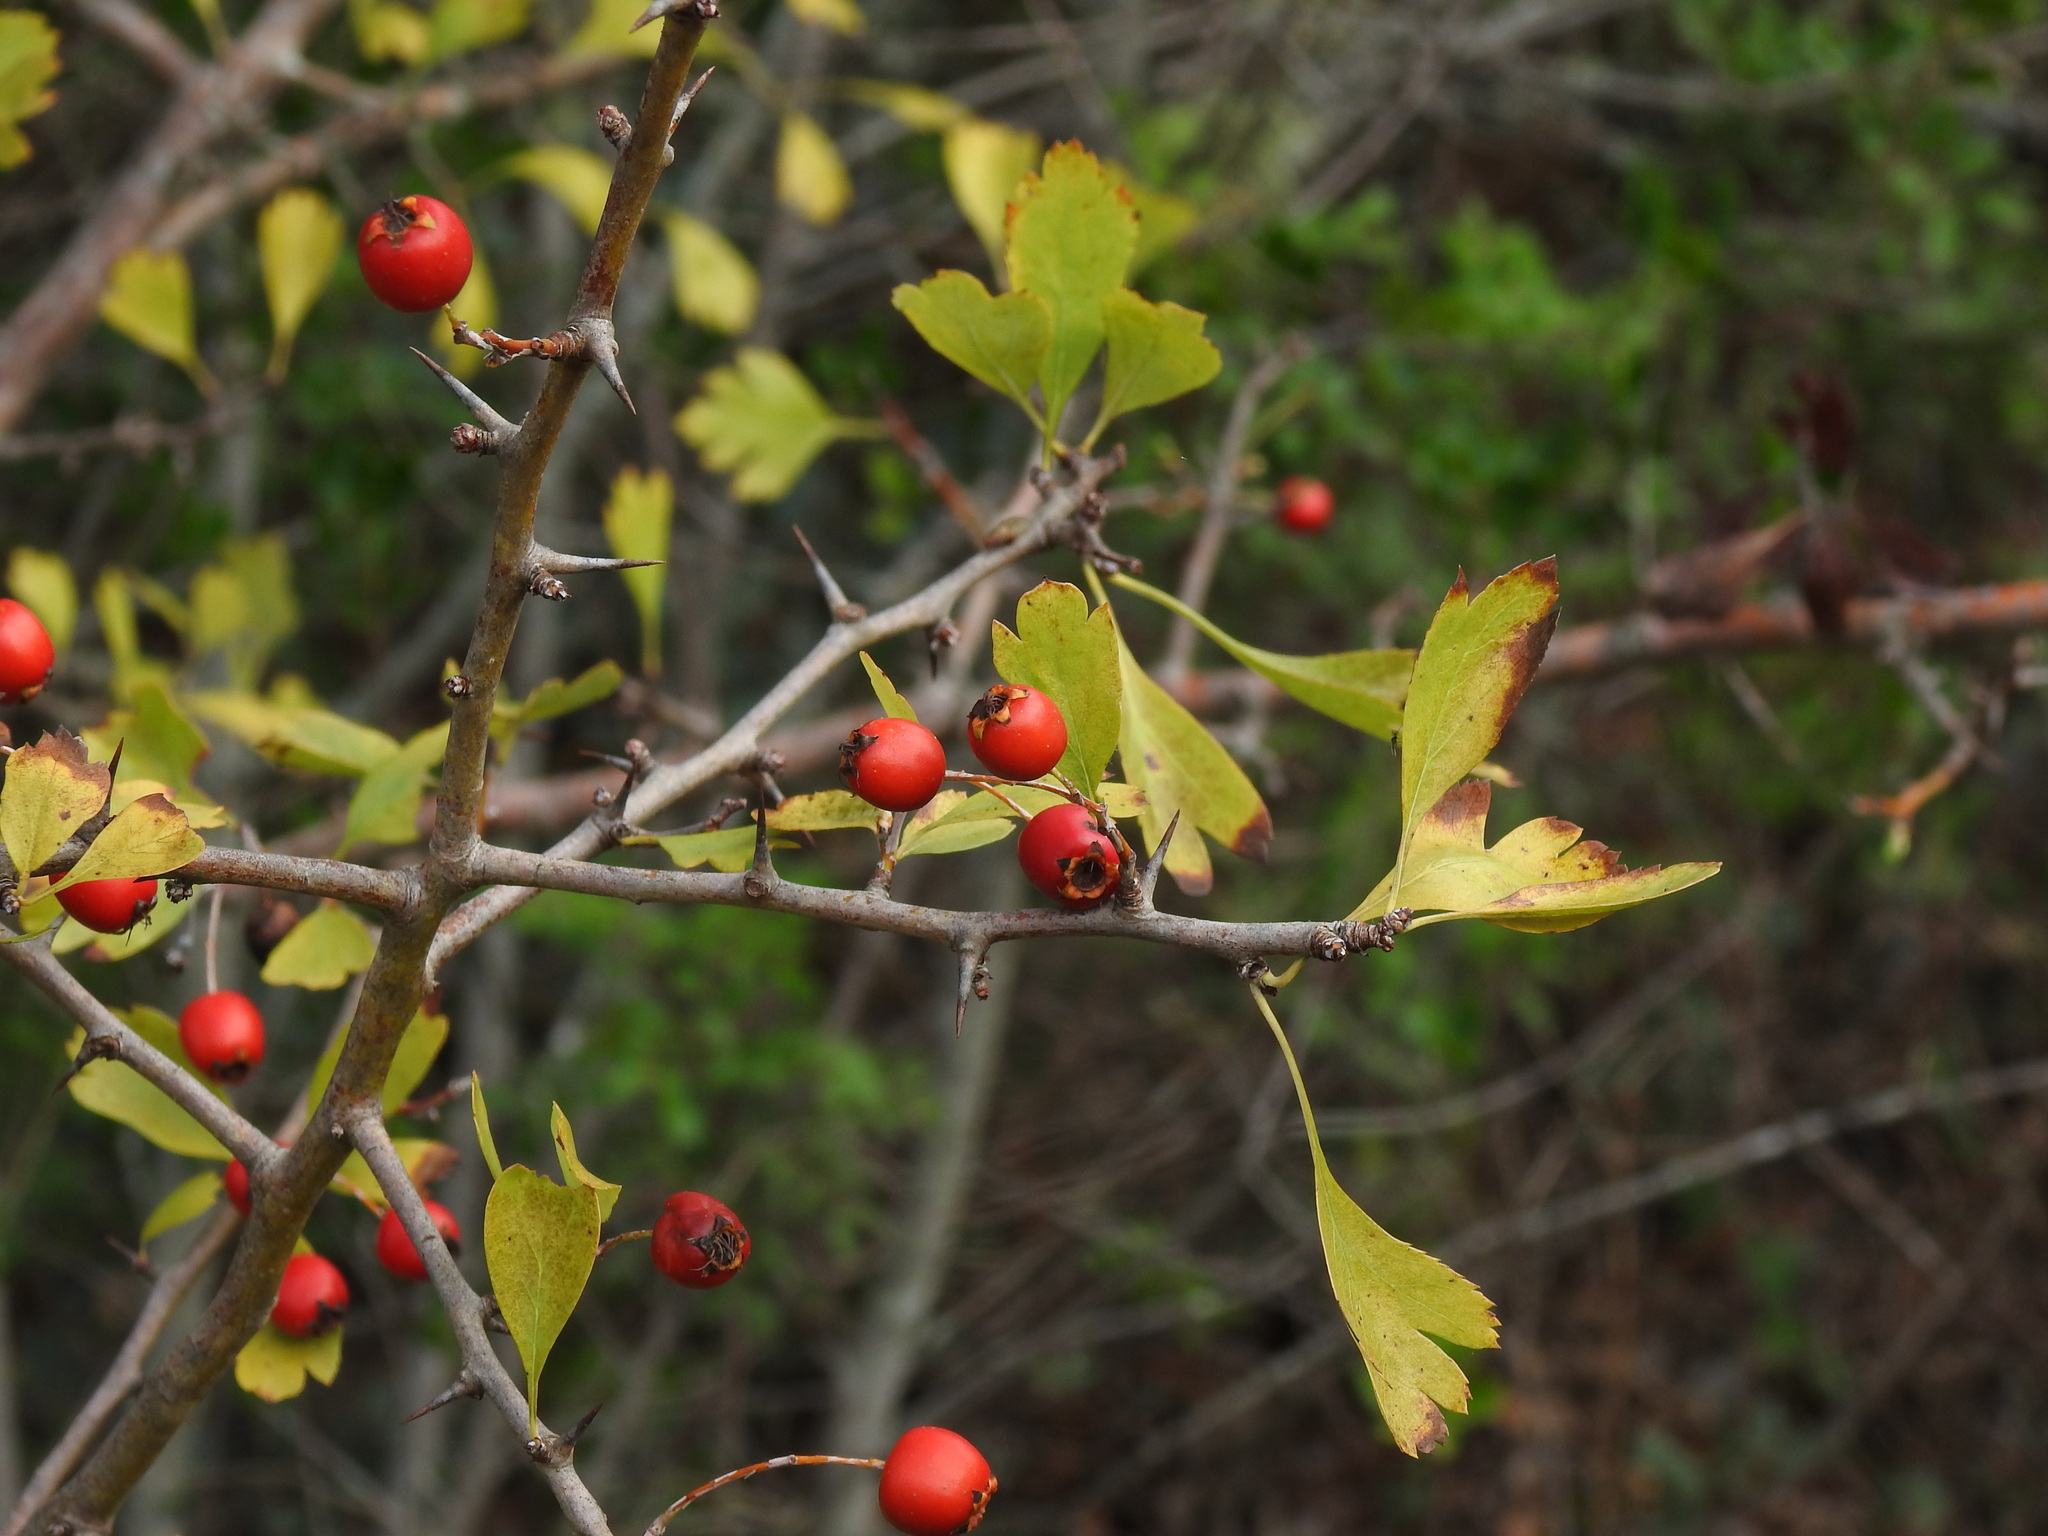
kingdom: Plantae
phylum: Tracheophyta
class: Magnoliopsida
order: Rosales
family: Rosaceae
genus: Crataegus
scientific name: Crataegus monogyna
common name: Hawthorn
